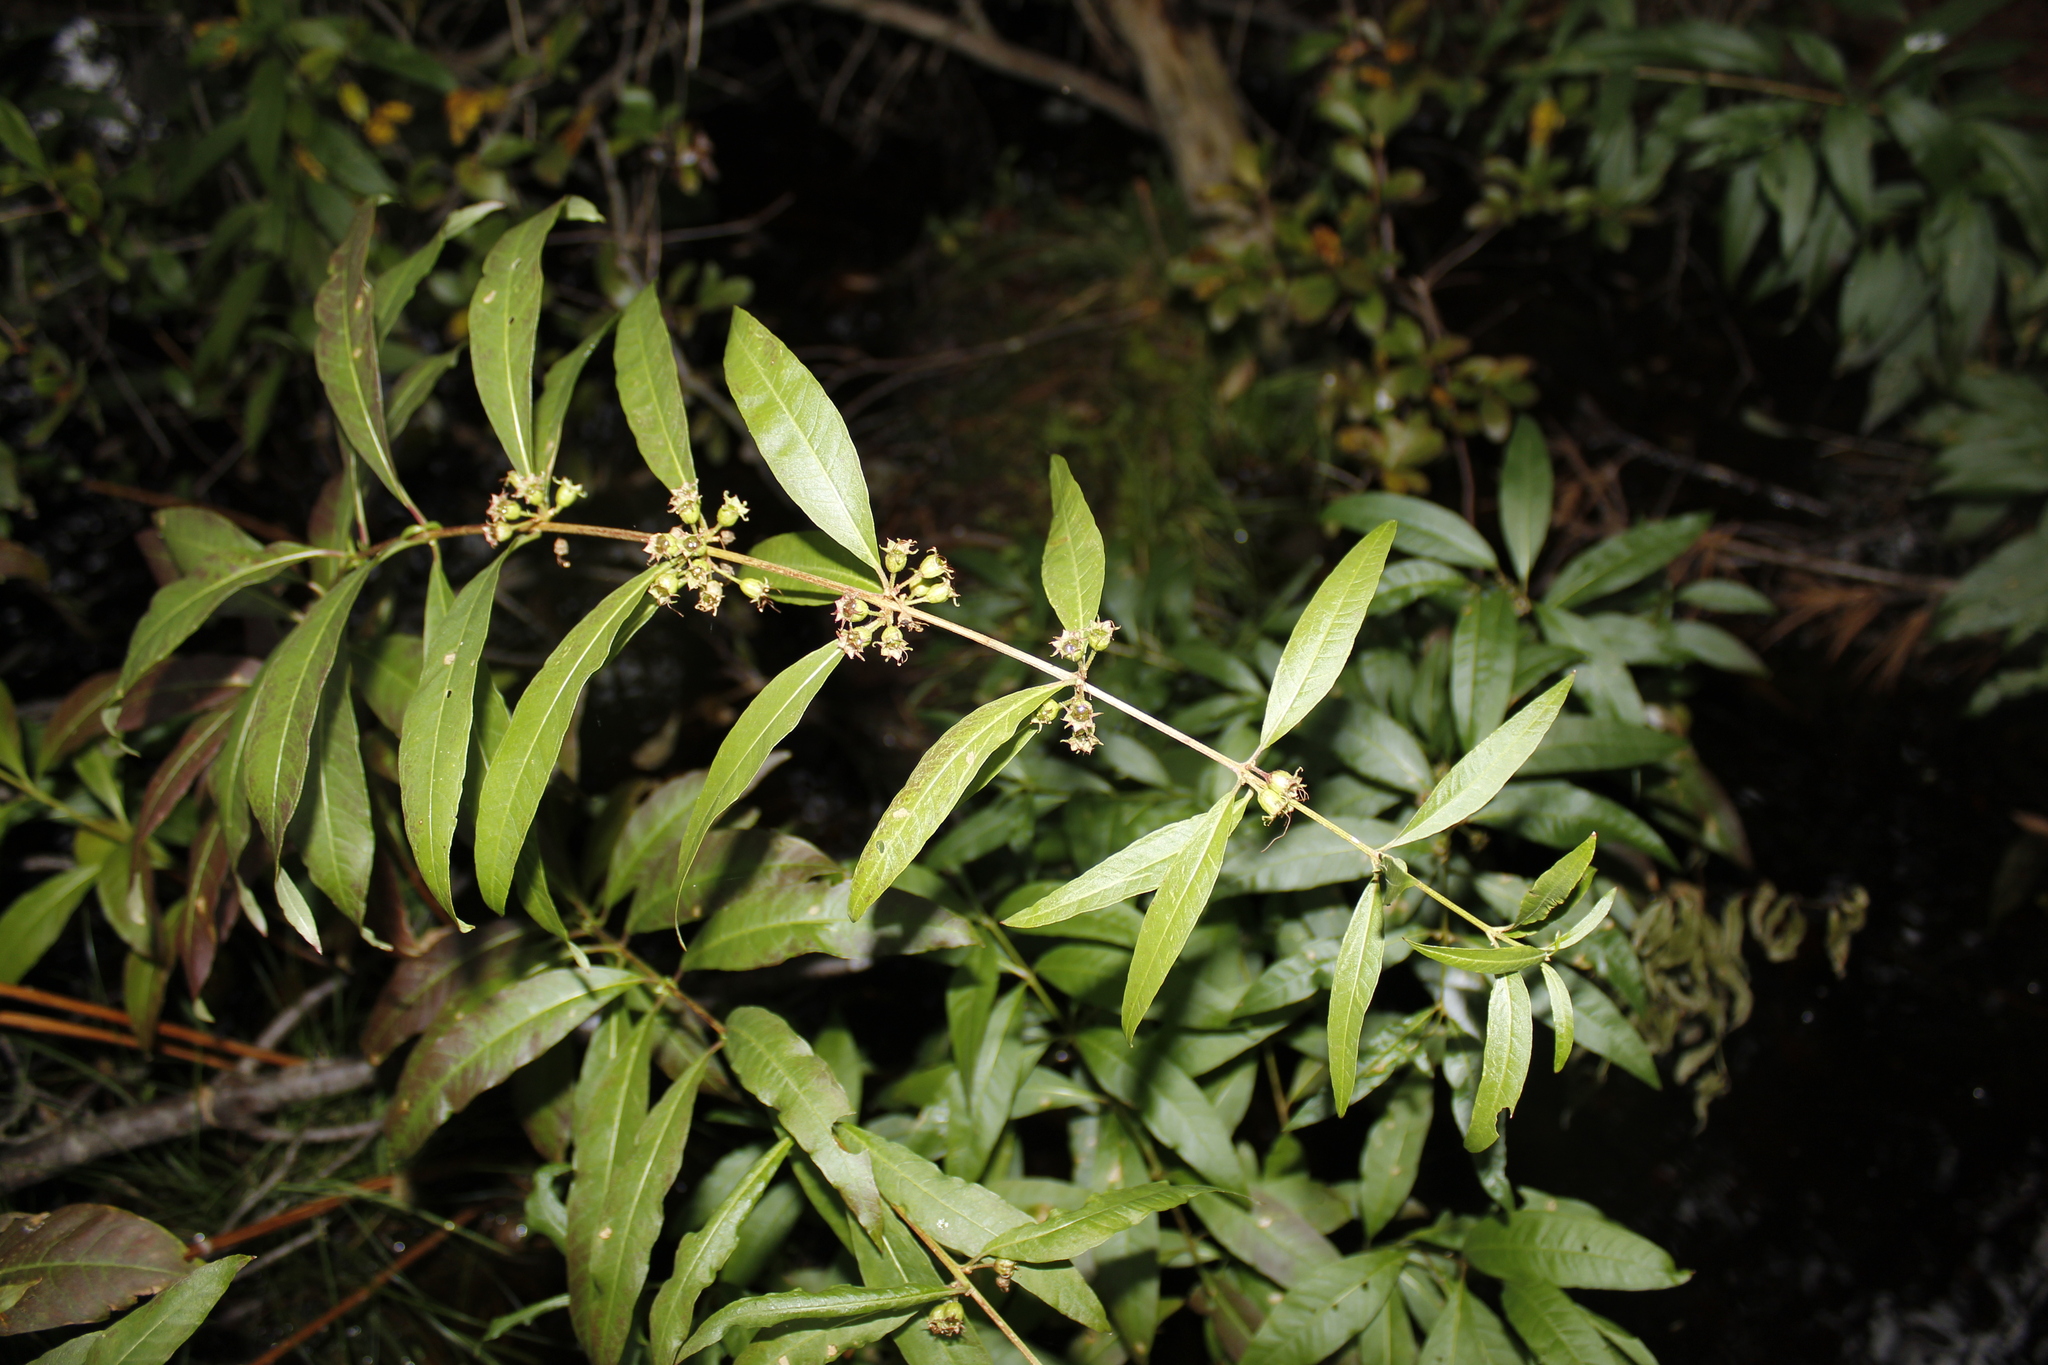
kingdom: Plantae
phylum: Tracheophyta
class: Magnoliopsida
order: Myrtales
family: Lythraceae
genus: Decodon
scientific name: Decodon verticillatus
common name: Hairy swamp loosestrife
